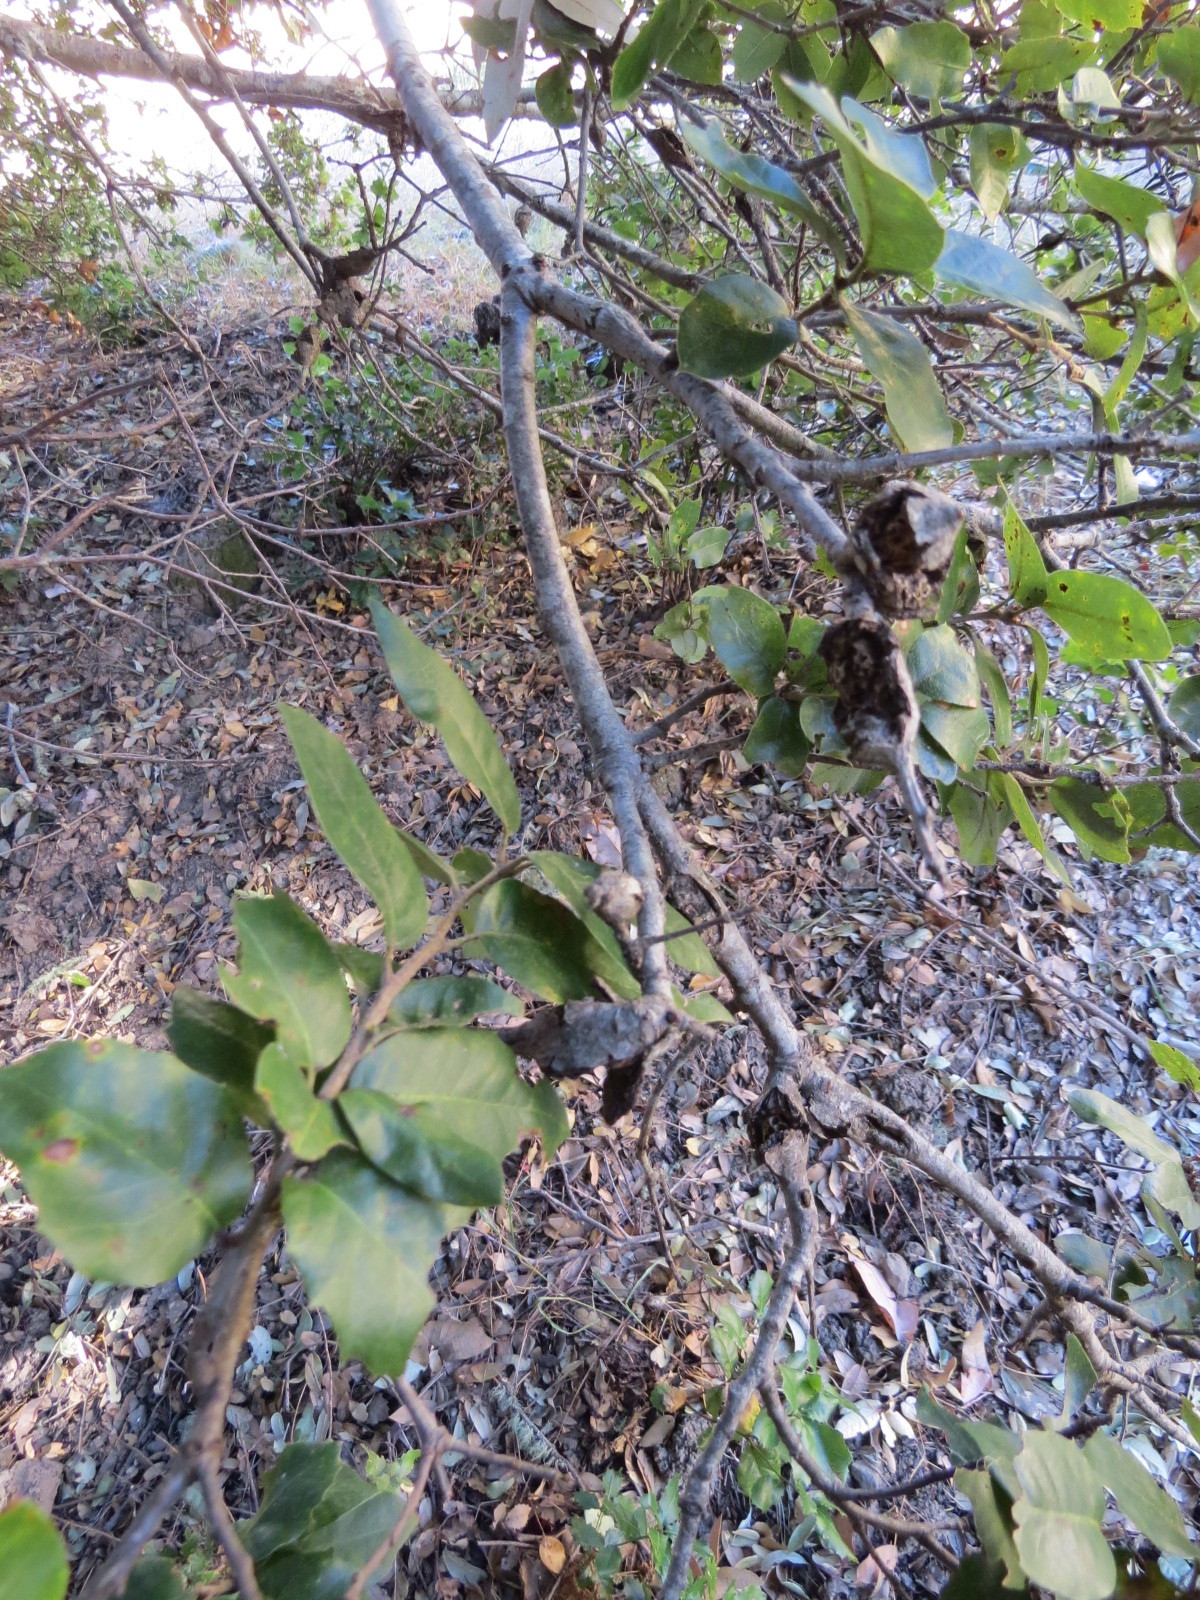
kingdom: Animalia
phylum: Arthropoda
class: Insecta
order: Hymenoptera
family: Cynipidae
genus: Dryocosmus
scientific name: Dryocosmus
